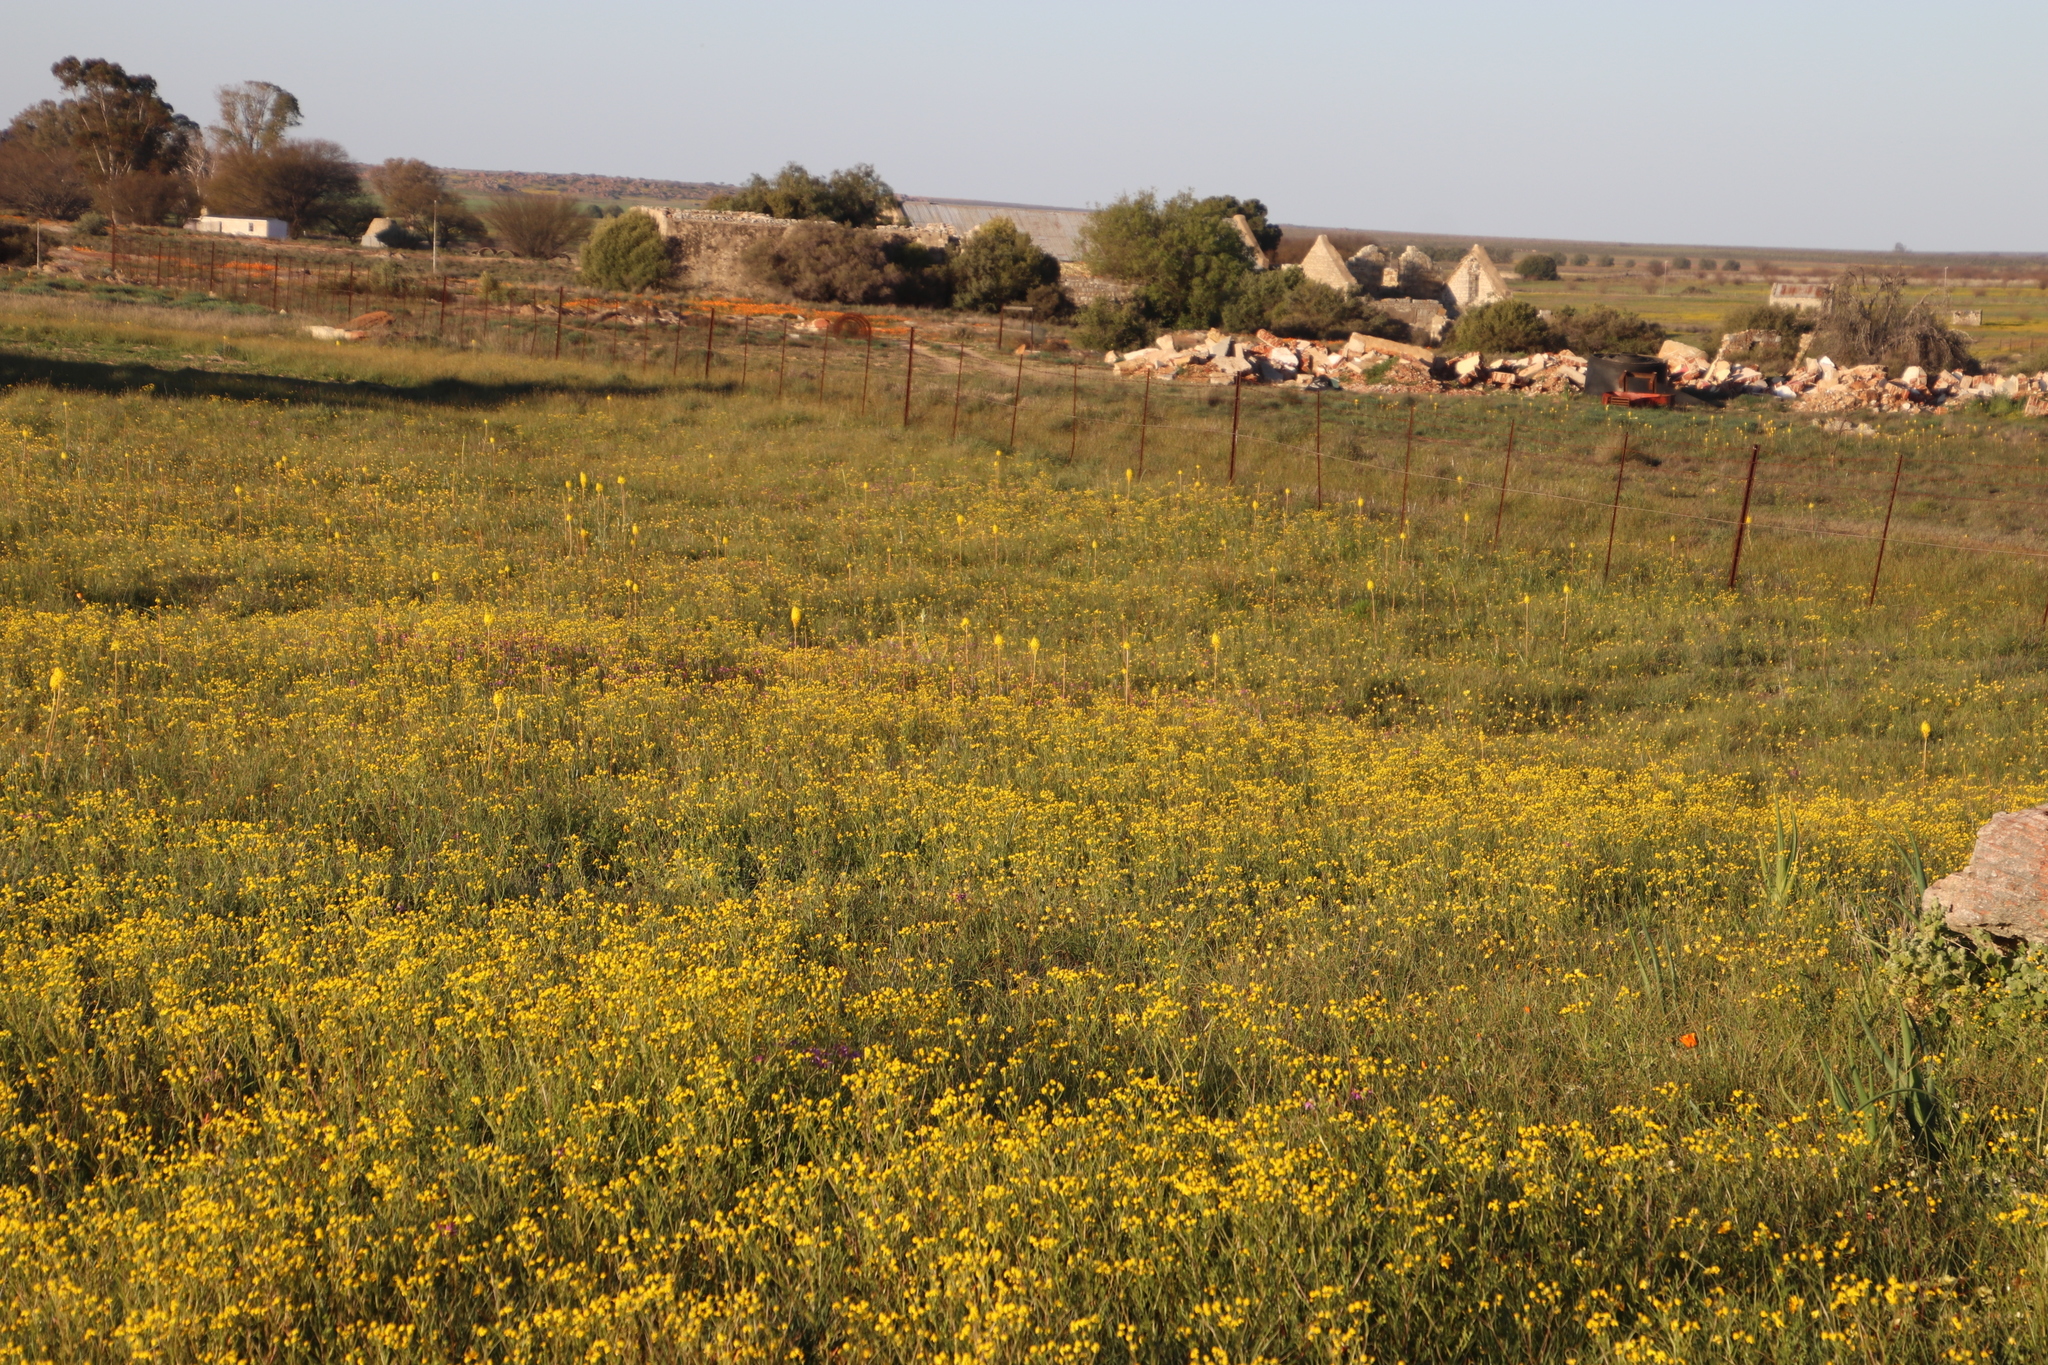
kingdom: Plantae
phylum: Tracheophyta
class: Magnoliopsida
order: Asterales
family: Asteraceae
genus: Senecio
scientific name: Senecio abruptus
